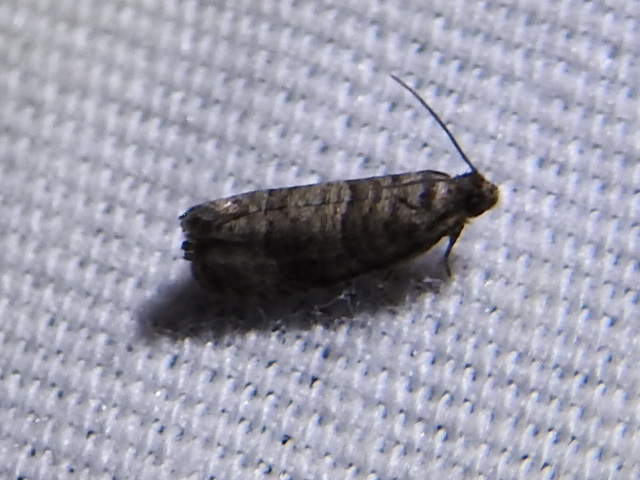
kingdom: Animalia
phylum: Arthropoda
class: Insecta
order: Lepidoptera
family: Noctuidae
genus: Aspila
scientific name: Aspila
